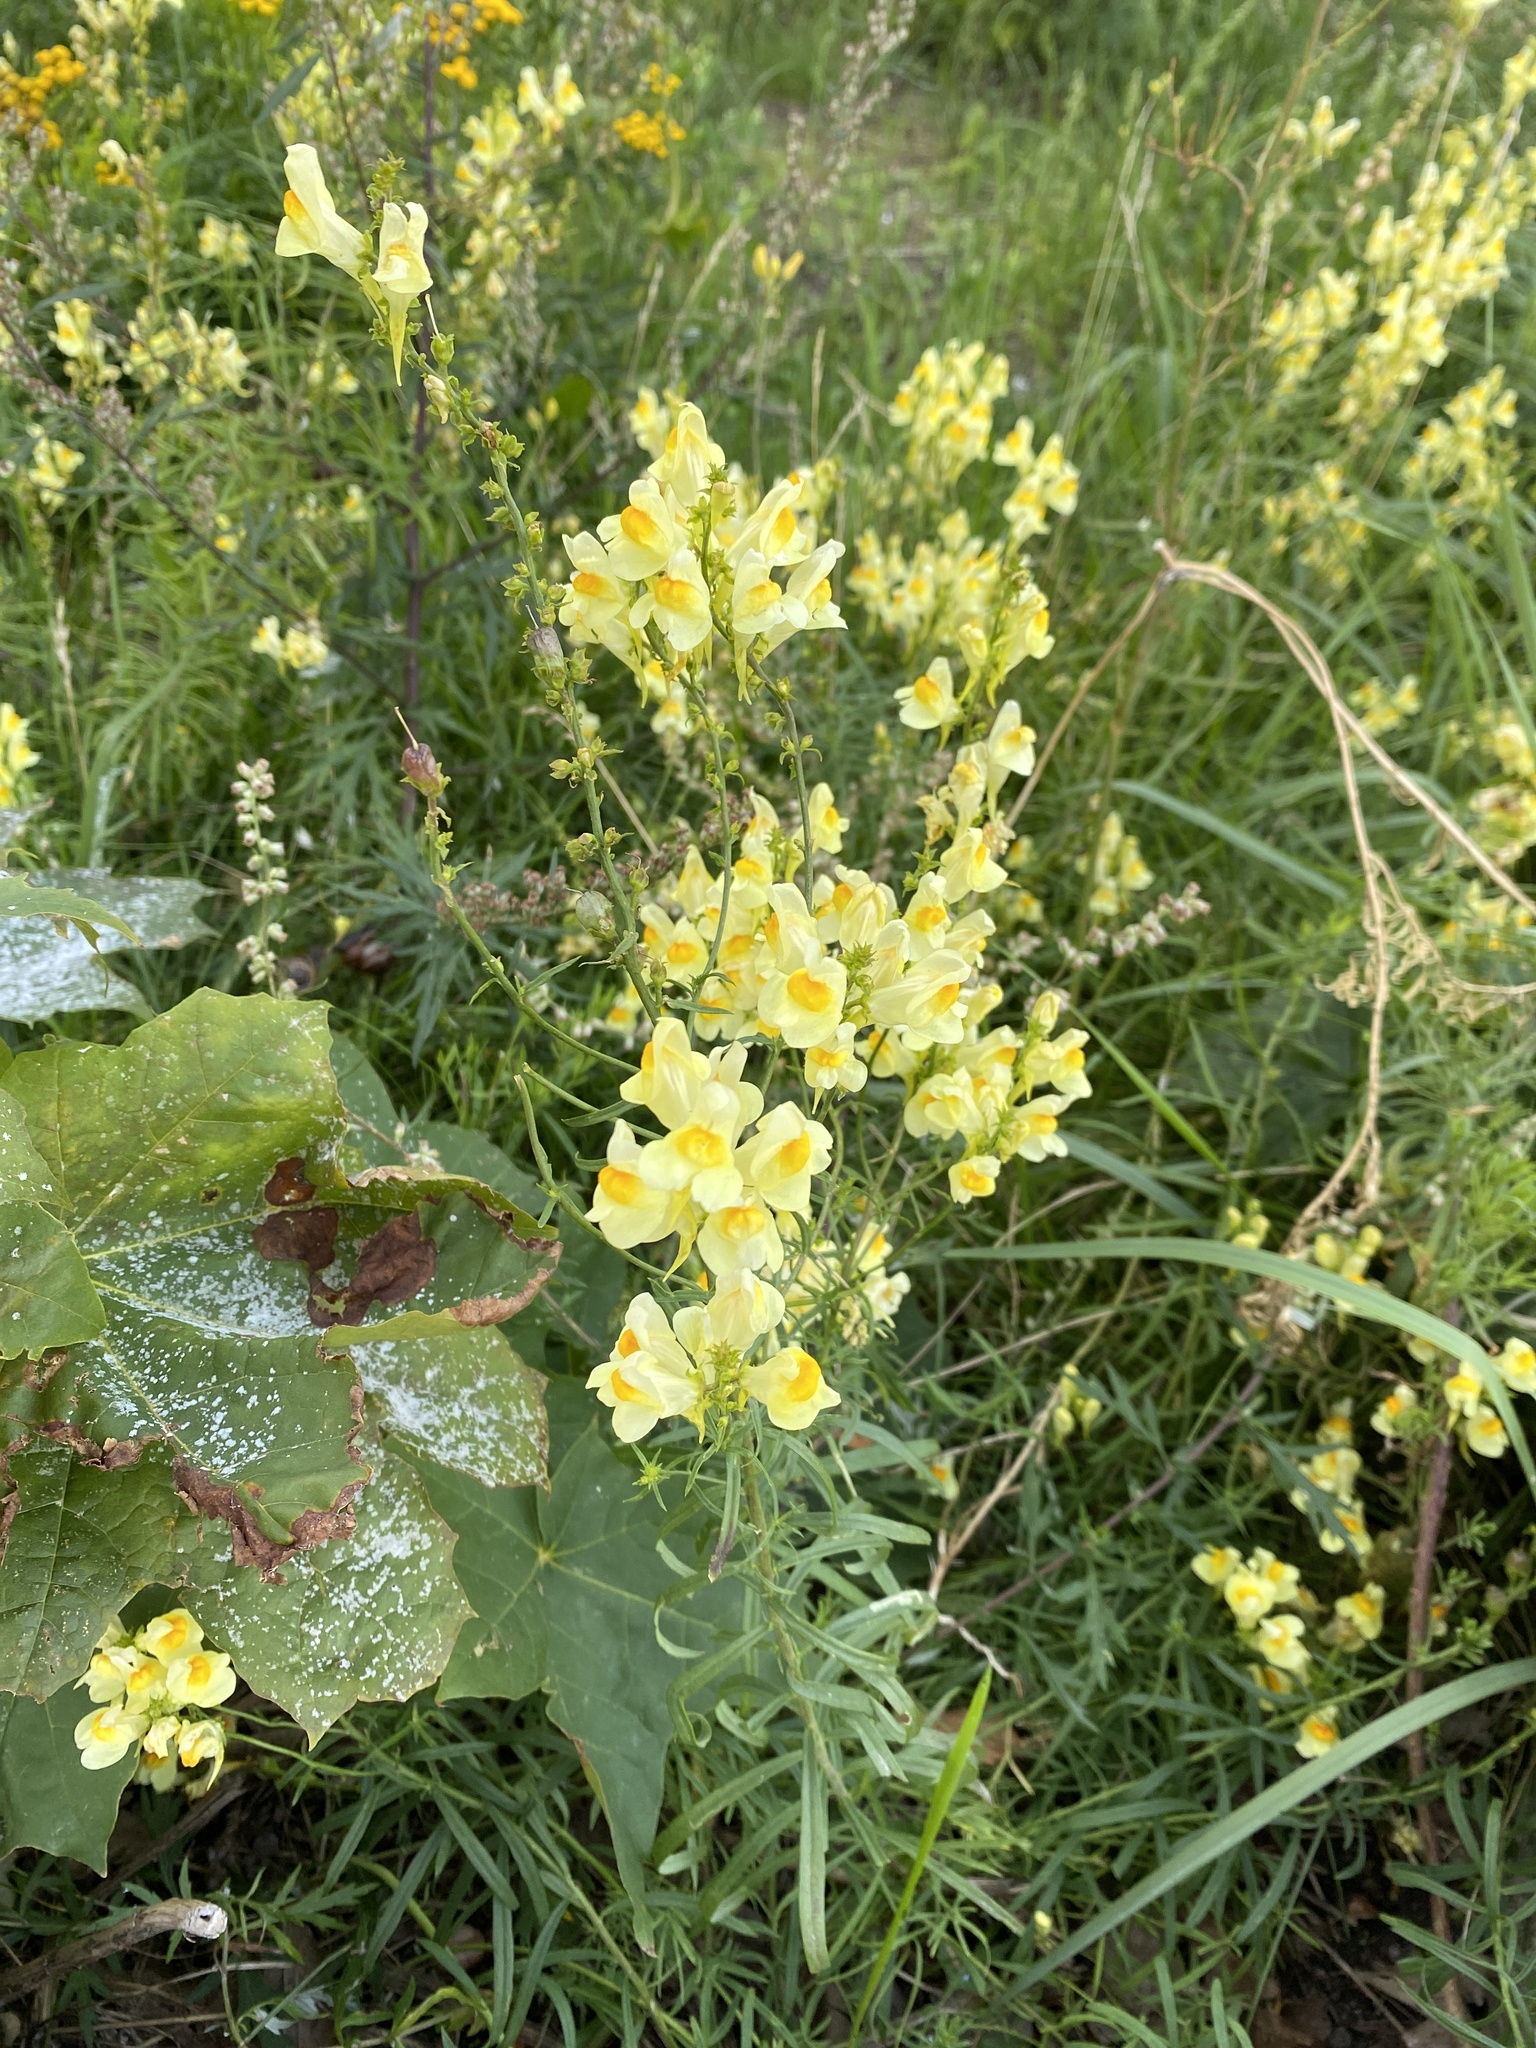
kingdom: Plantae
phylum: Tracheophyta
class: Magnoliopsida
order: Lamiales
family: Plantaginaceae
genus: Linaria
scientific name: Linaria vulgaris
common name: Butter and eggs
